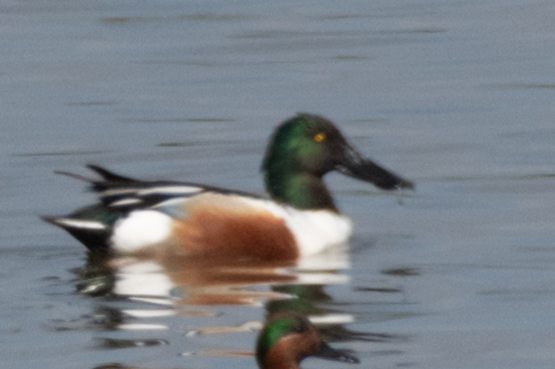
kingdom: Animalia
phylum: Chordata
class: Aves
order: Anseriformes
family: Anatidae
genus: Spatula
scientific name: Spatula clypeata
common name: Northern shoveler
